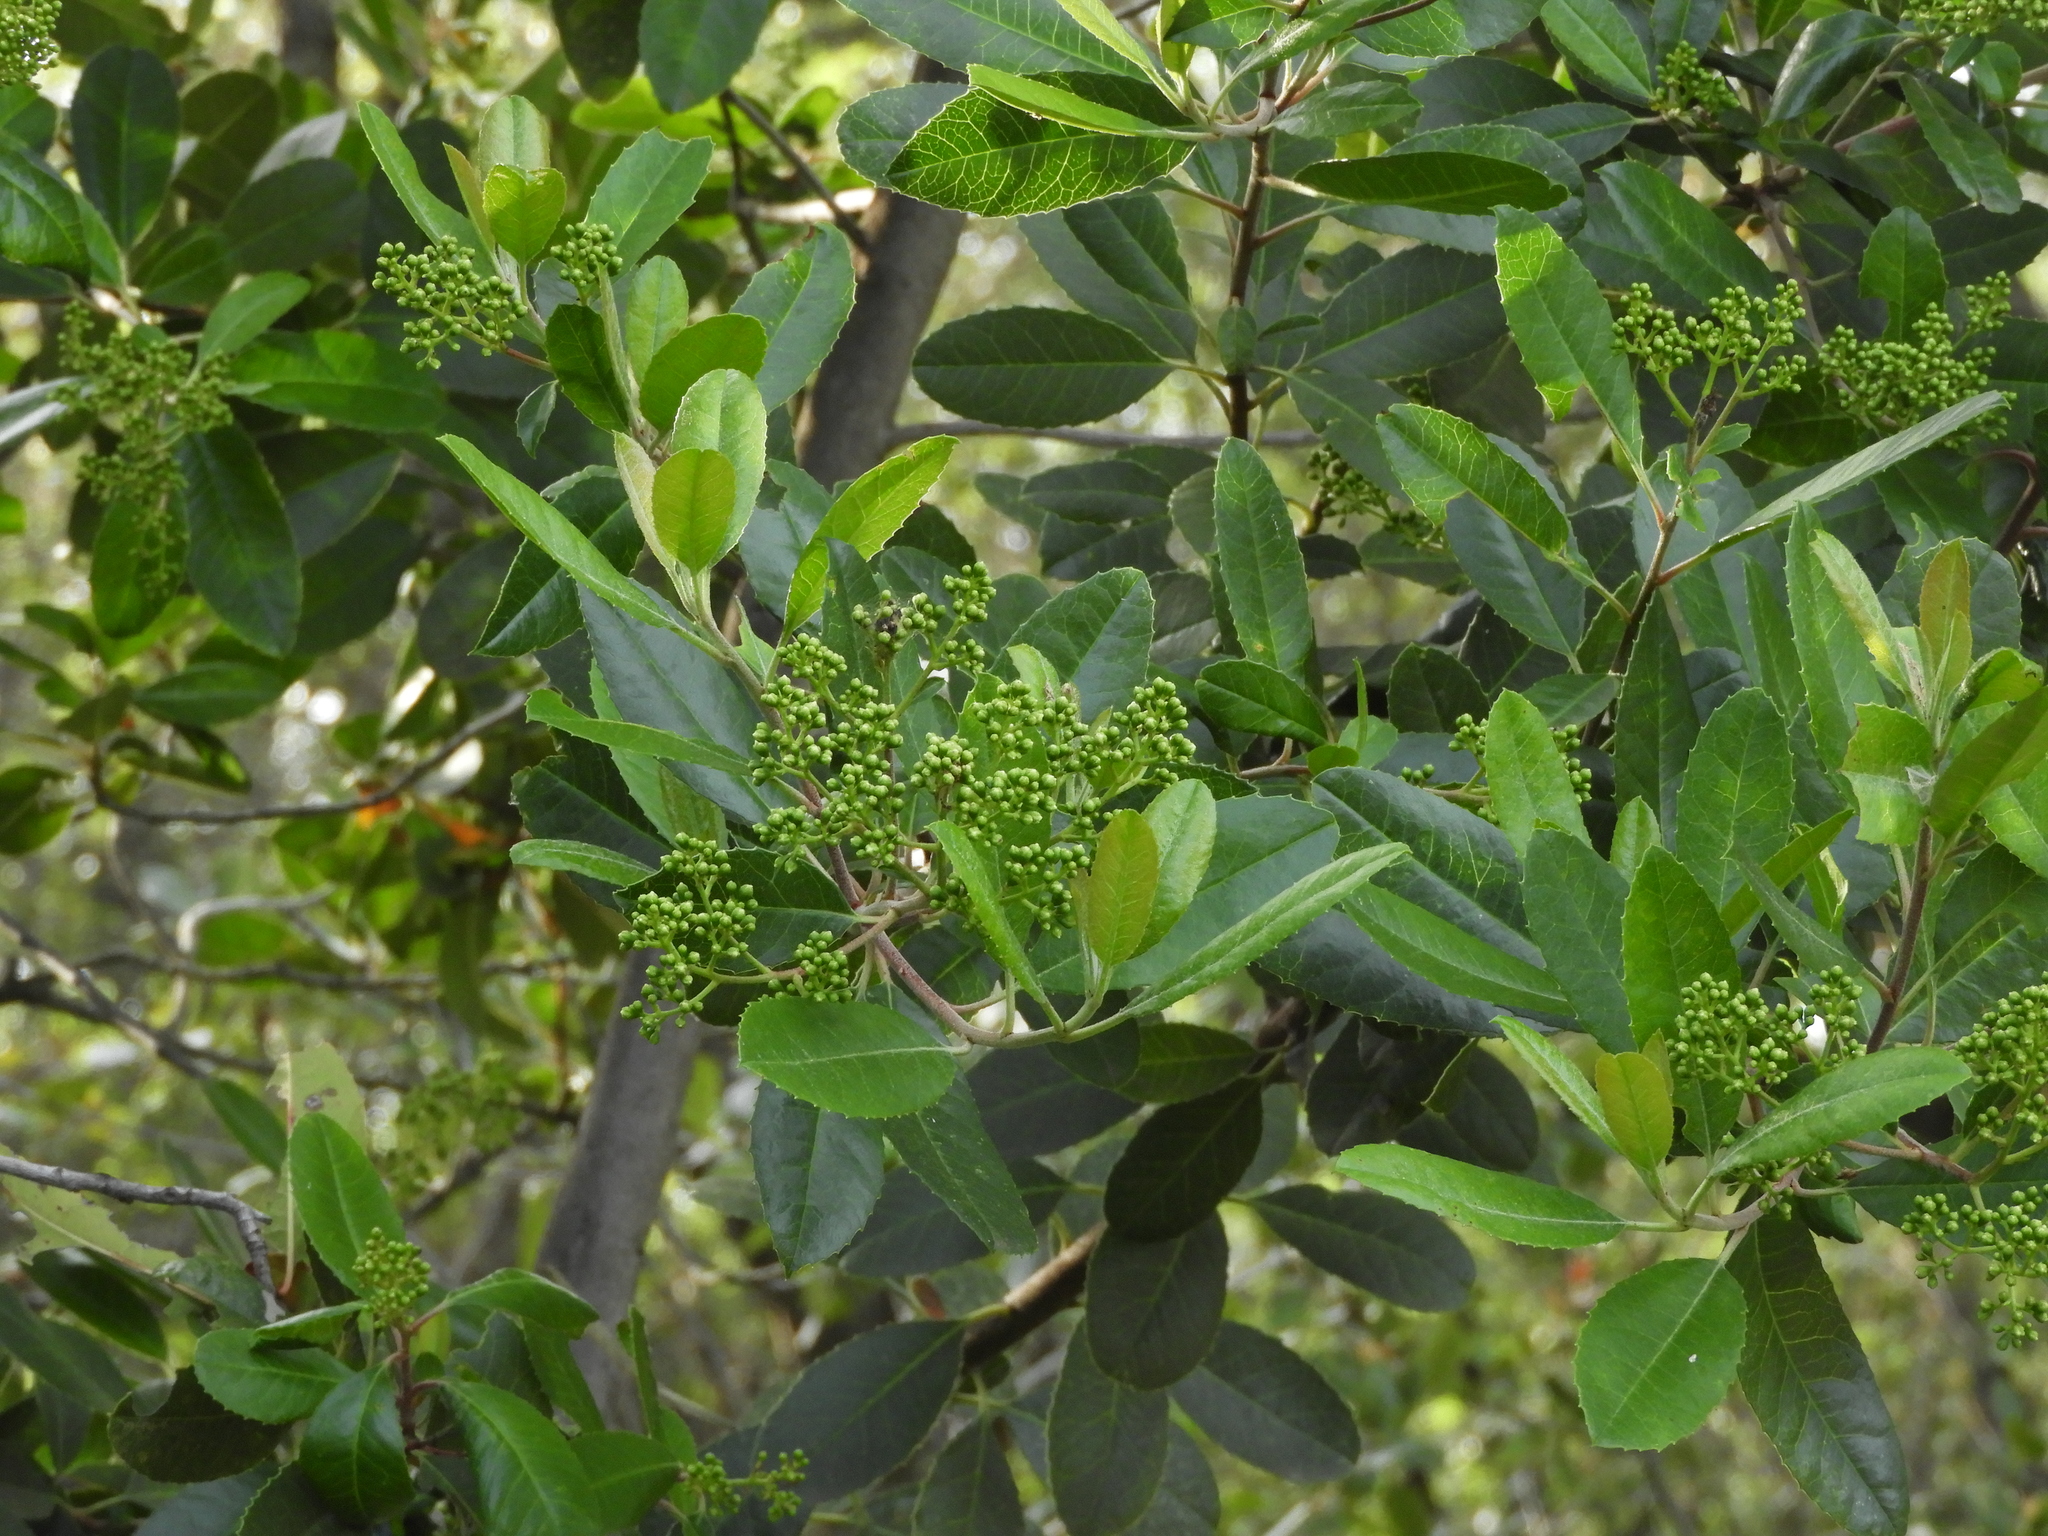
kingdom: Plantae
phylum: Tracheophyta
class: Magnoliopsida
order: Rosales
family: Rosaceae
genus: Heteromeles
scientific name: Heteromeles arbutifolia
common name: California-holly
